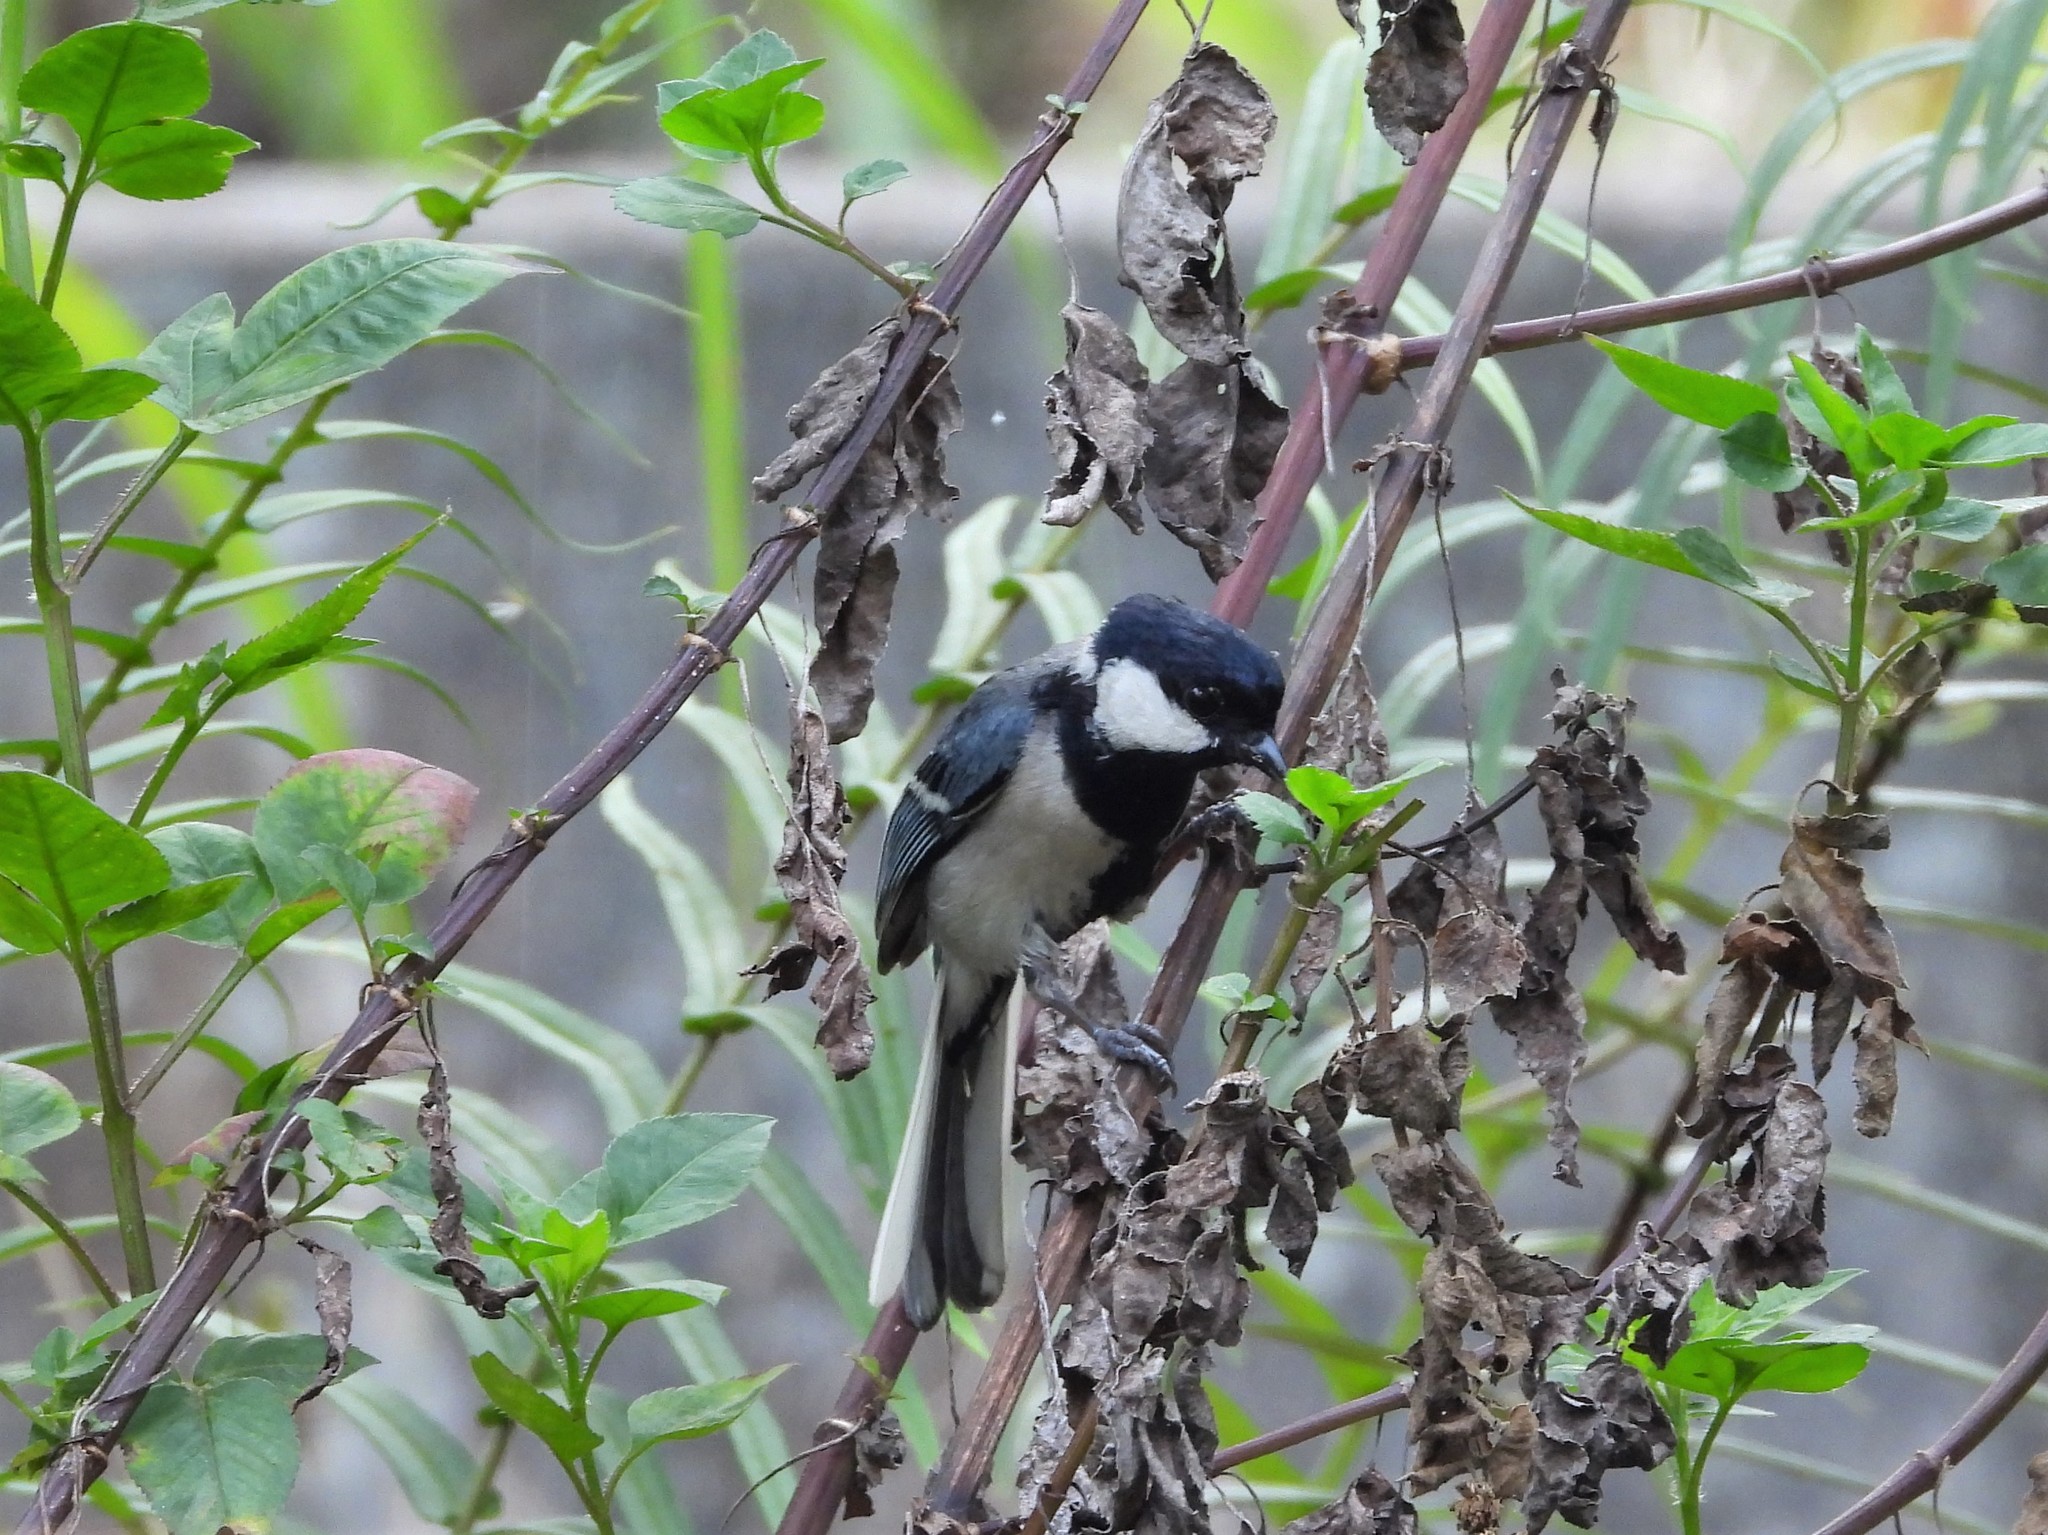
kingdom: Animalia
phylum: Chordata
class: Aves
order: Passeriformes
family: Paridae
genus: Parus
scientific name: Parus minor
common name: Japanese tit
